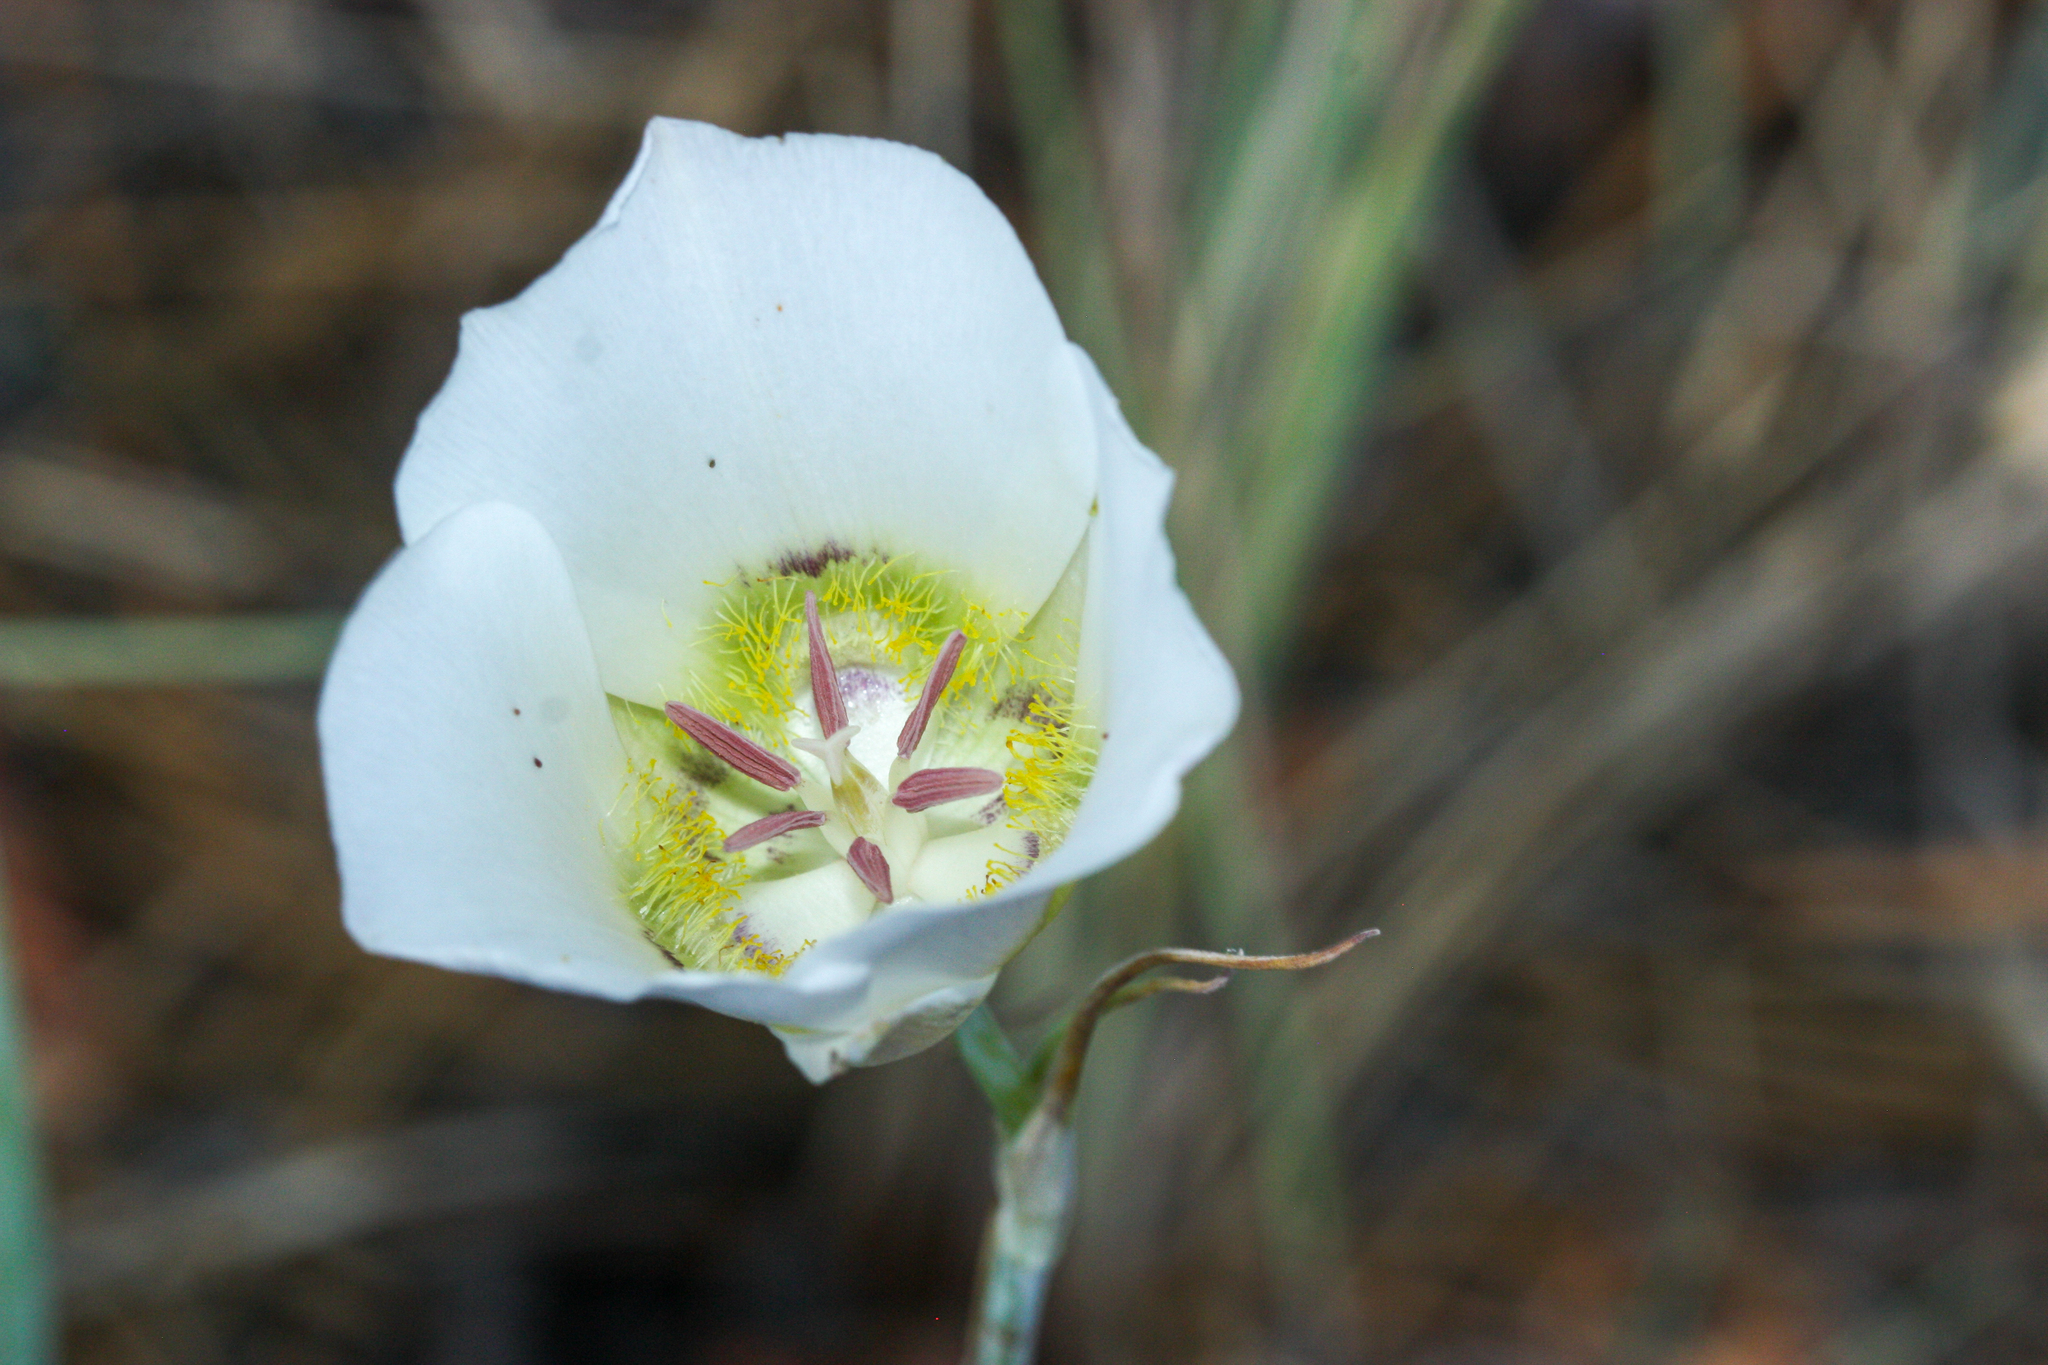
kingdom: Plantae
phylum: Tracheophyta
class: Liliopsida
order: Liliales
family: Liliaceae
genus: Calochortus
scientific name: Calochortus ambiguus
